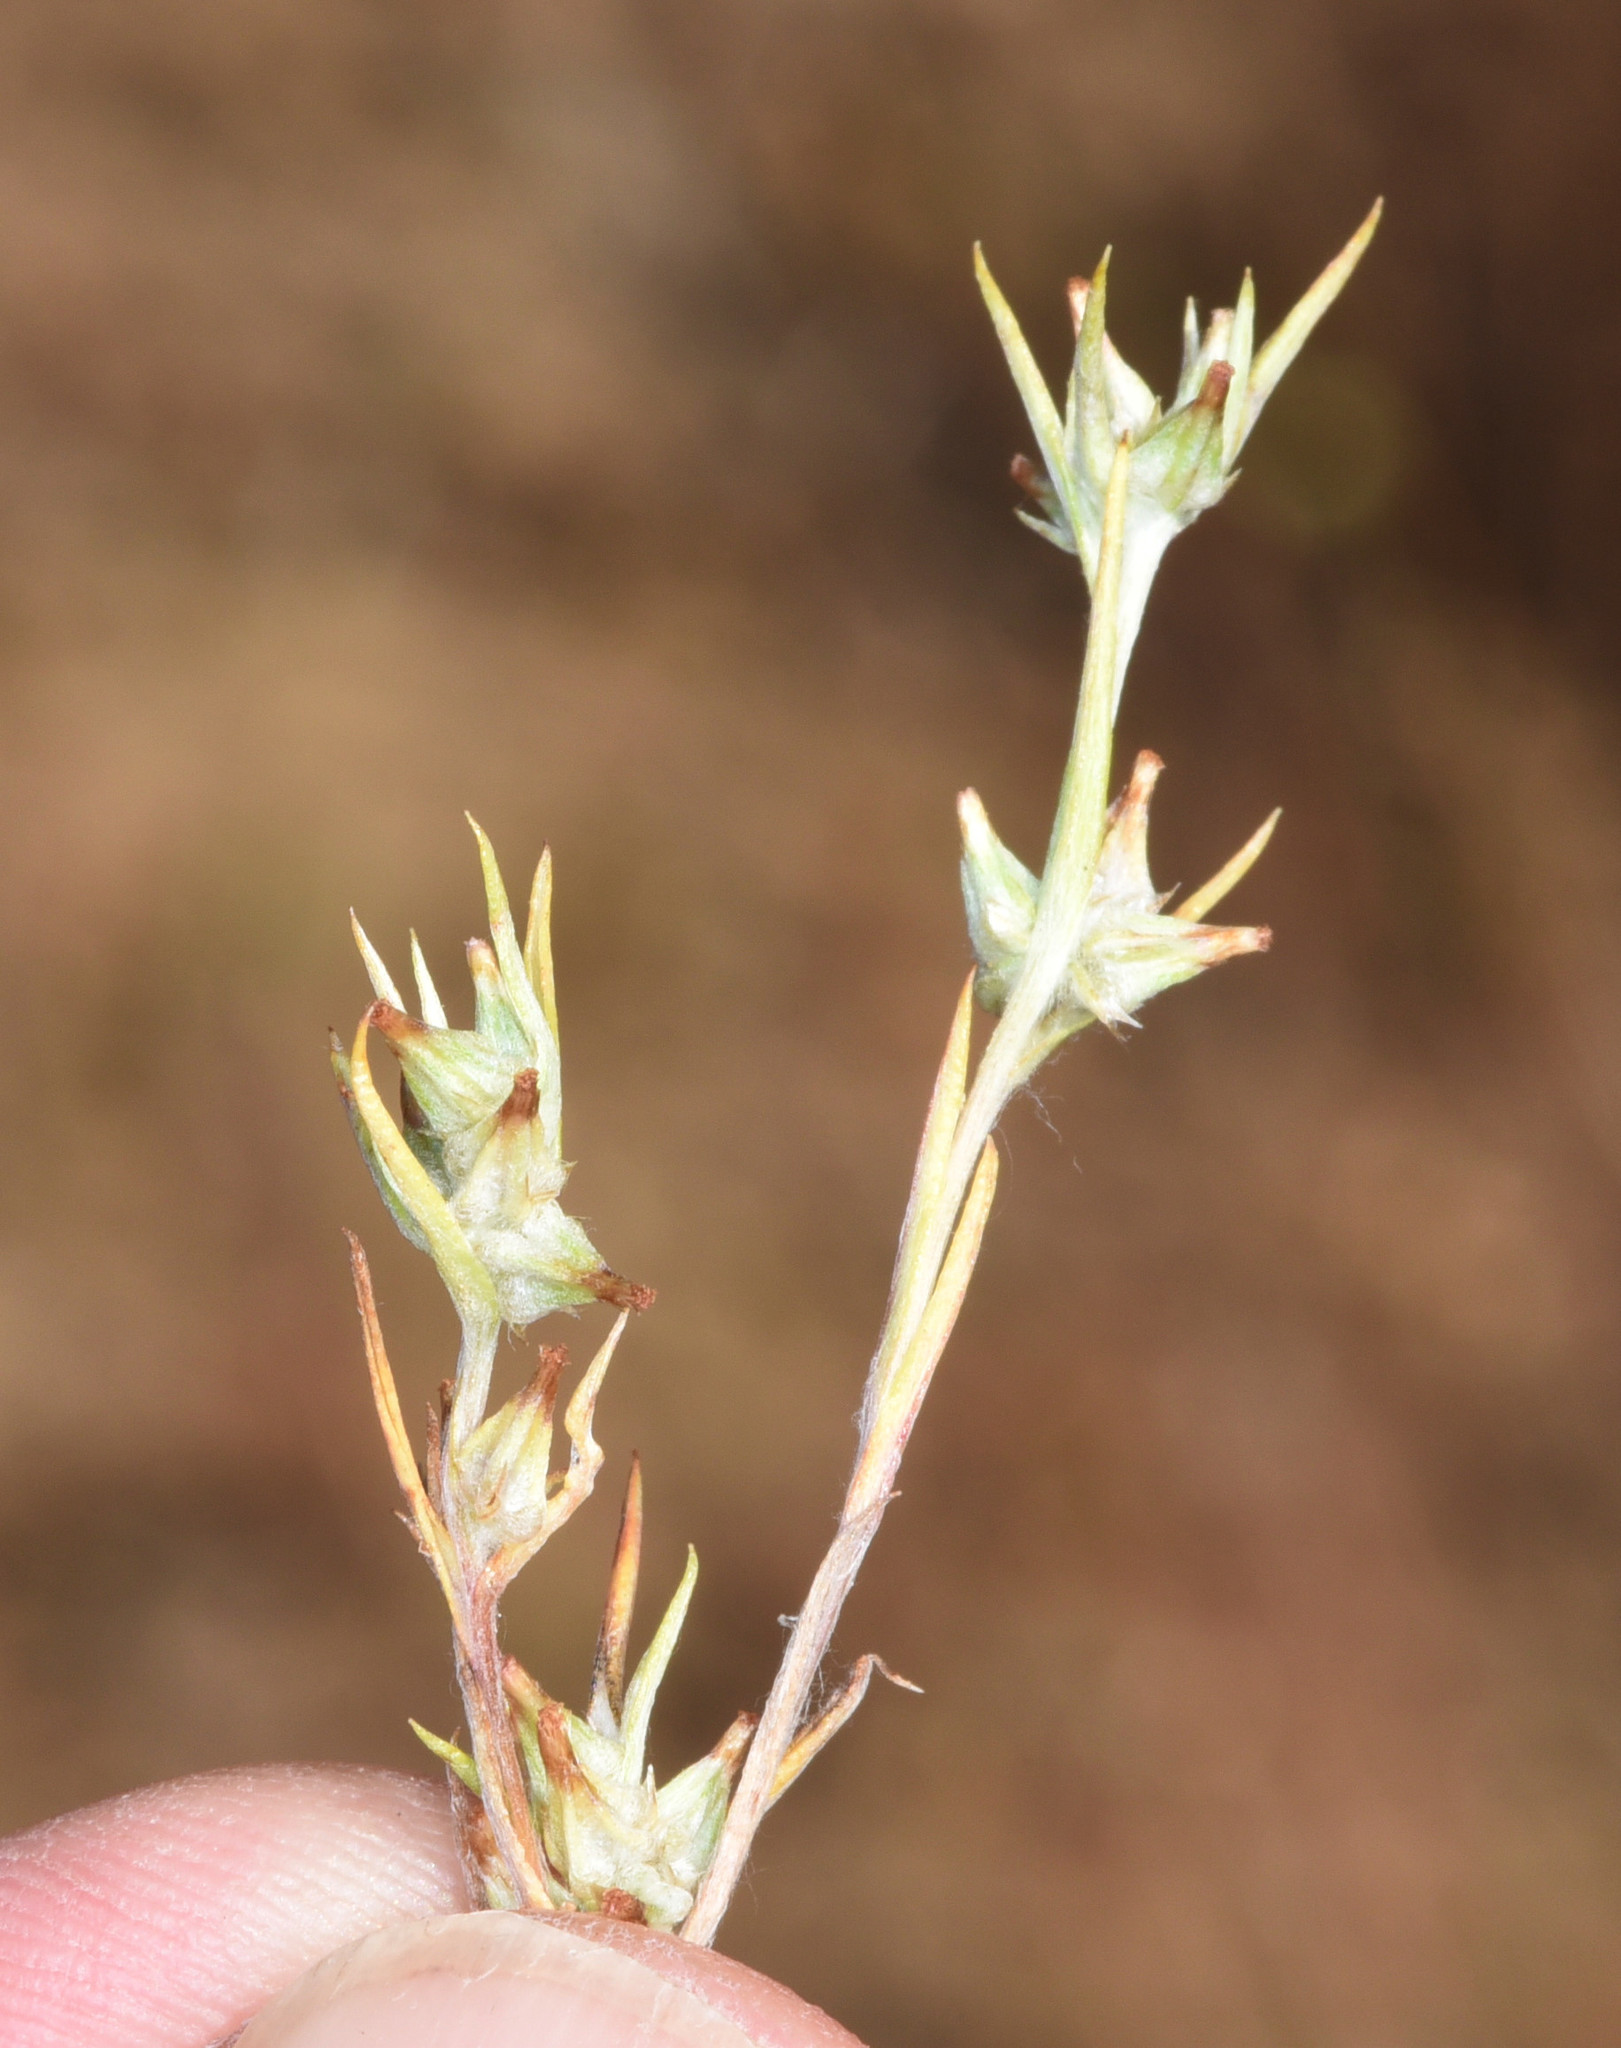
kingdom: Plantae
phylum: Tracheophyta
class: Magnoliopsida
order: Asterales
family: Asteraceae
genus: Logfia
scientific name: Logfia gallica
